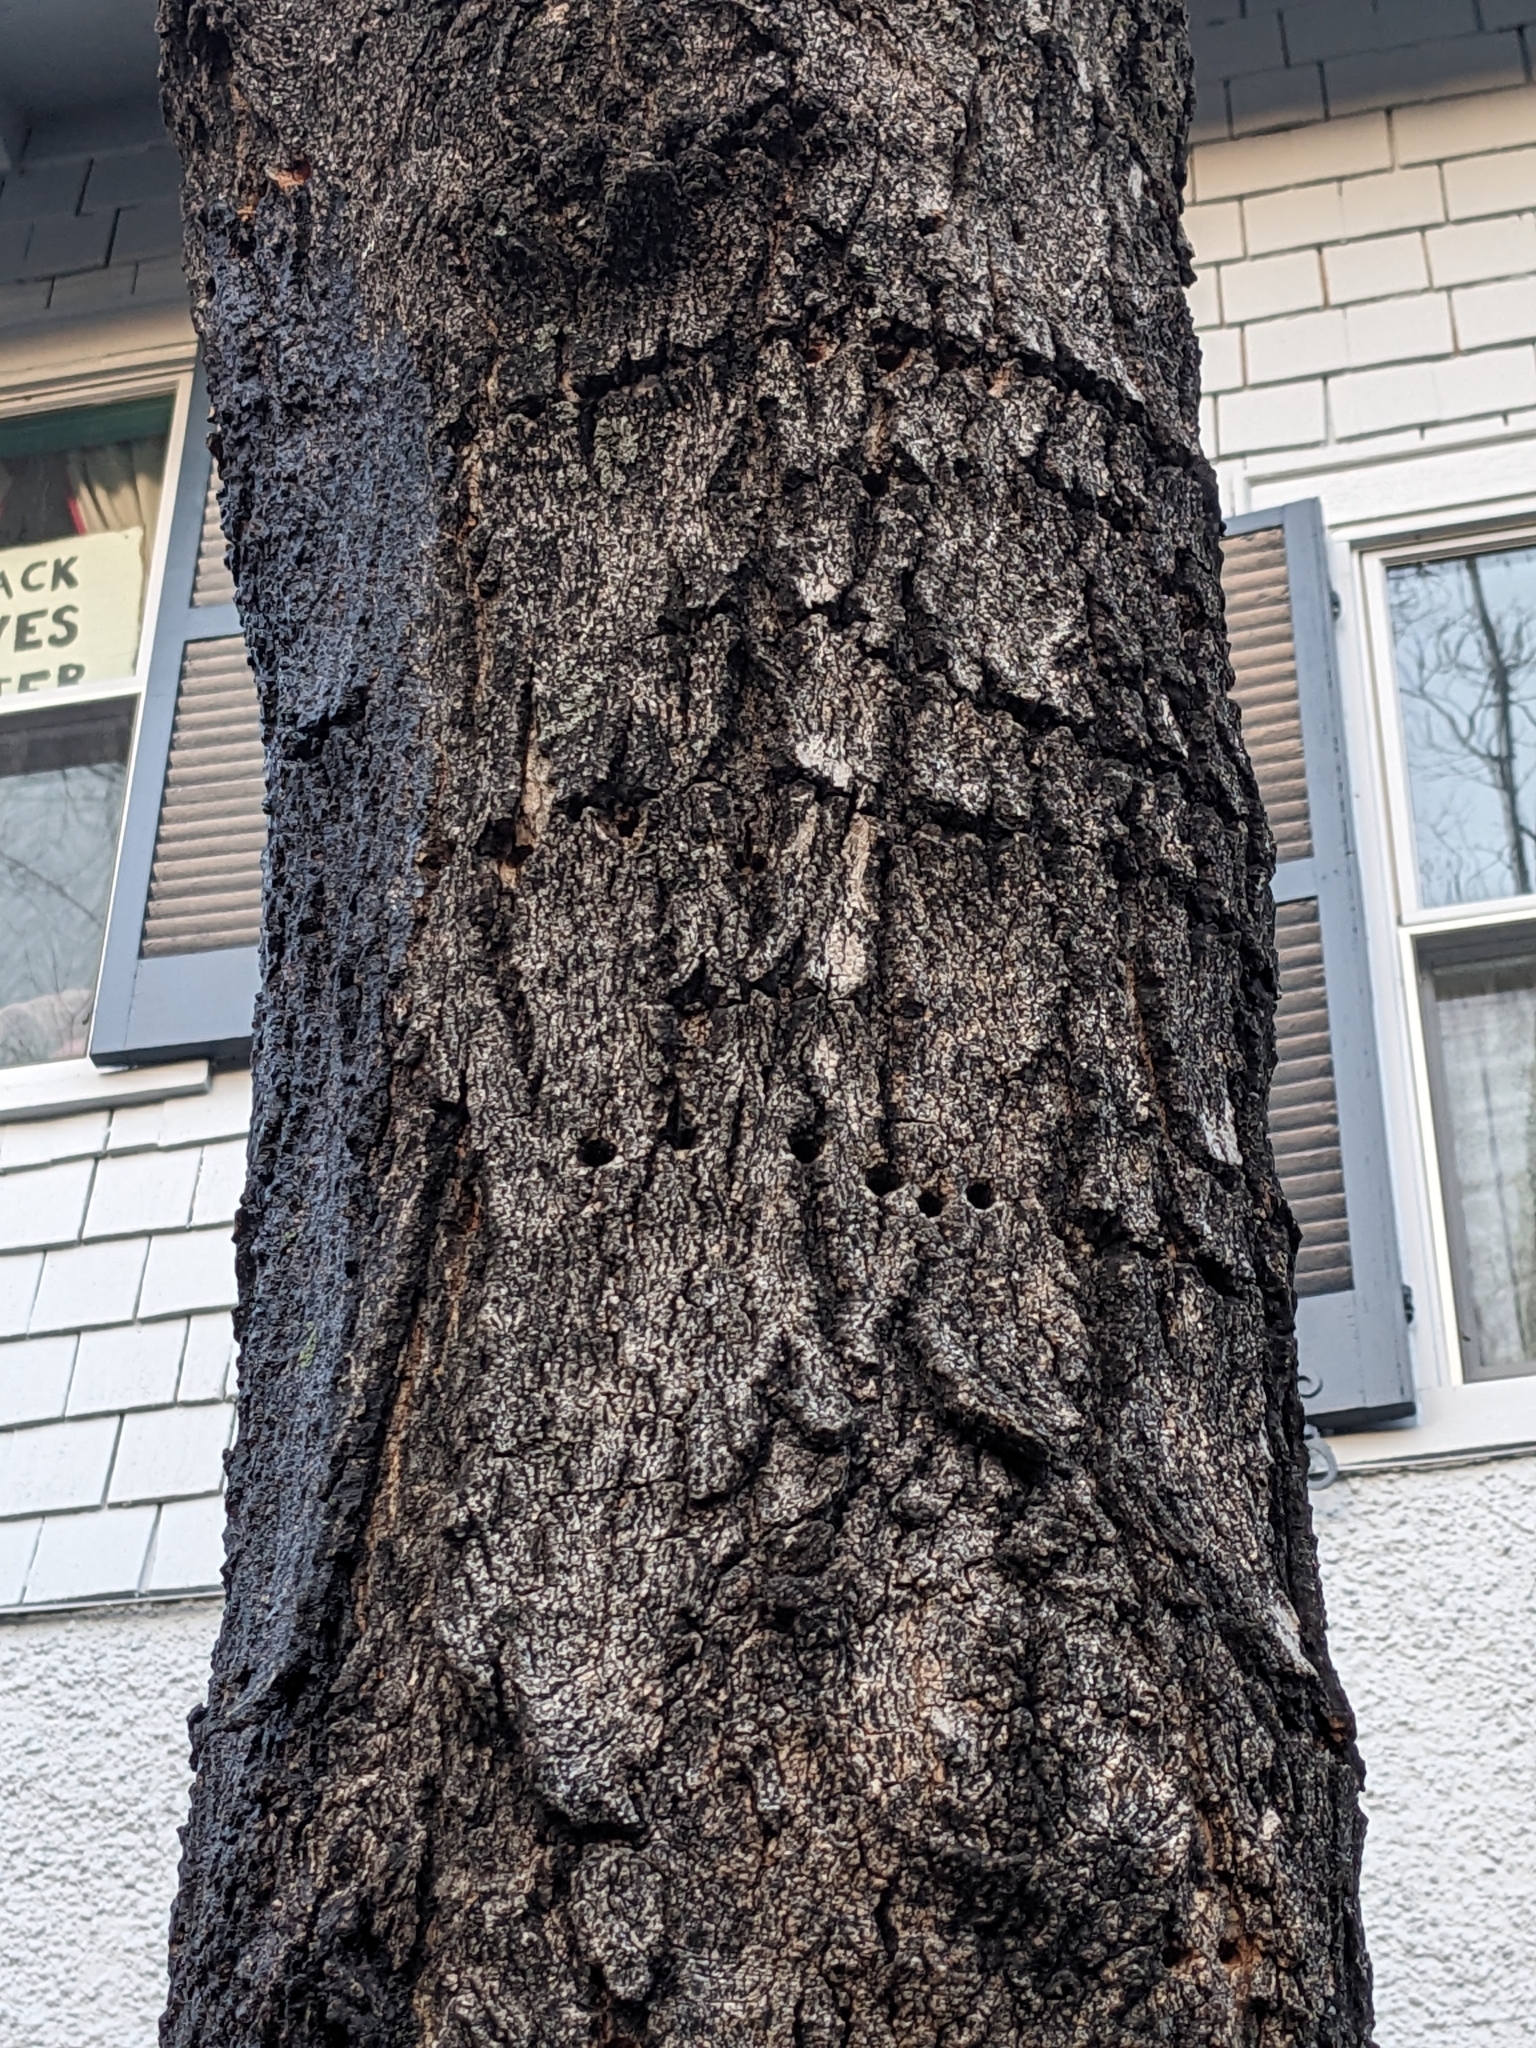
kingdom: Animalia
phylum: Chordata
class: Aves
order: Piciformes
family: Picidae
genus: Sphyrapicus
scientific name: Sphyrapicus varius
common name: Yellow-bellied sapsucker
